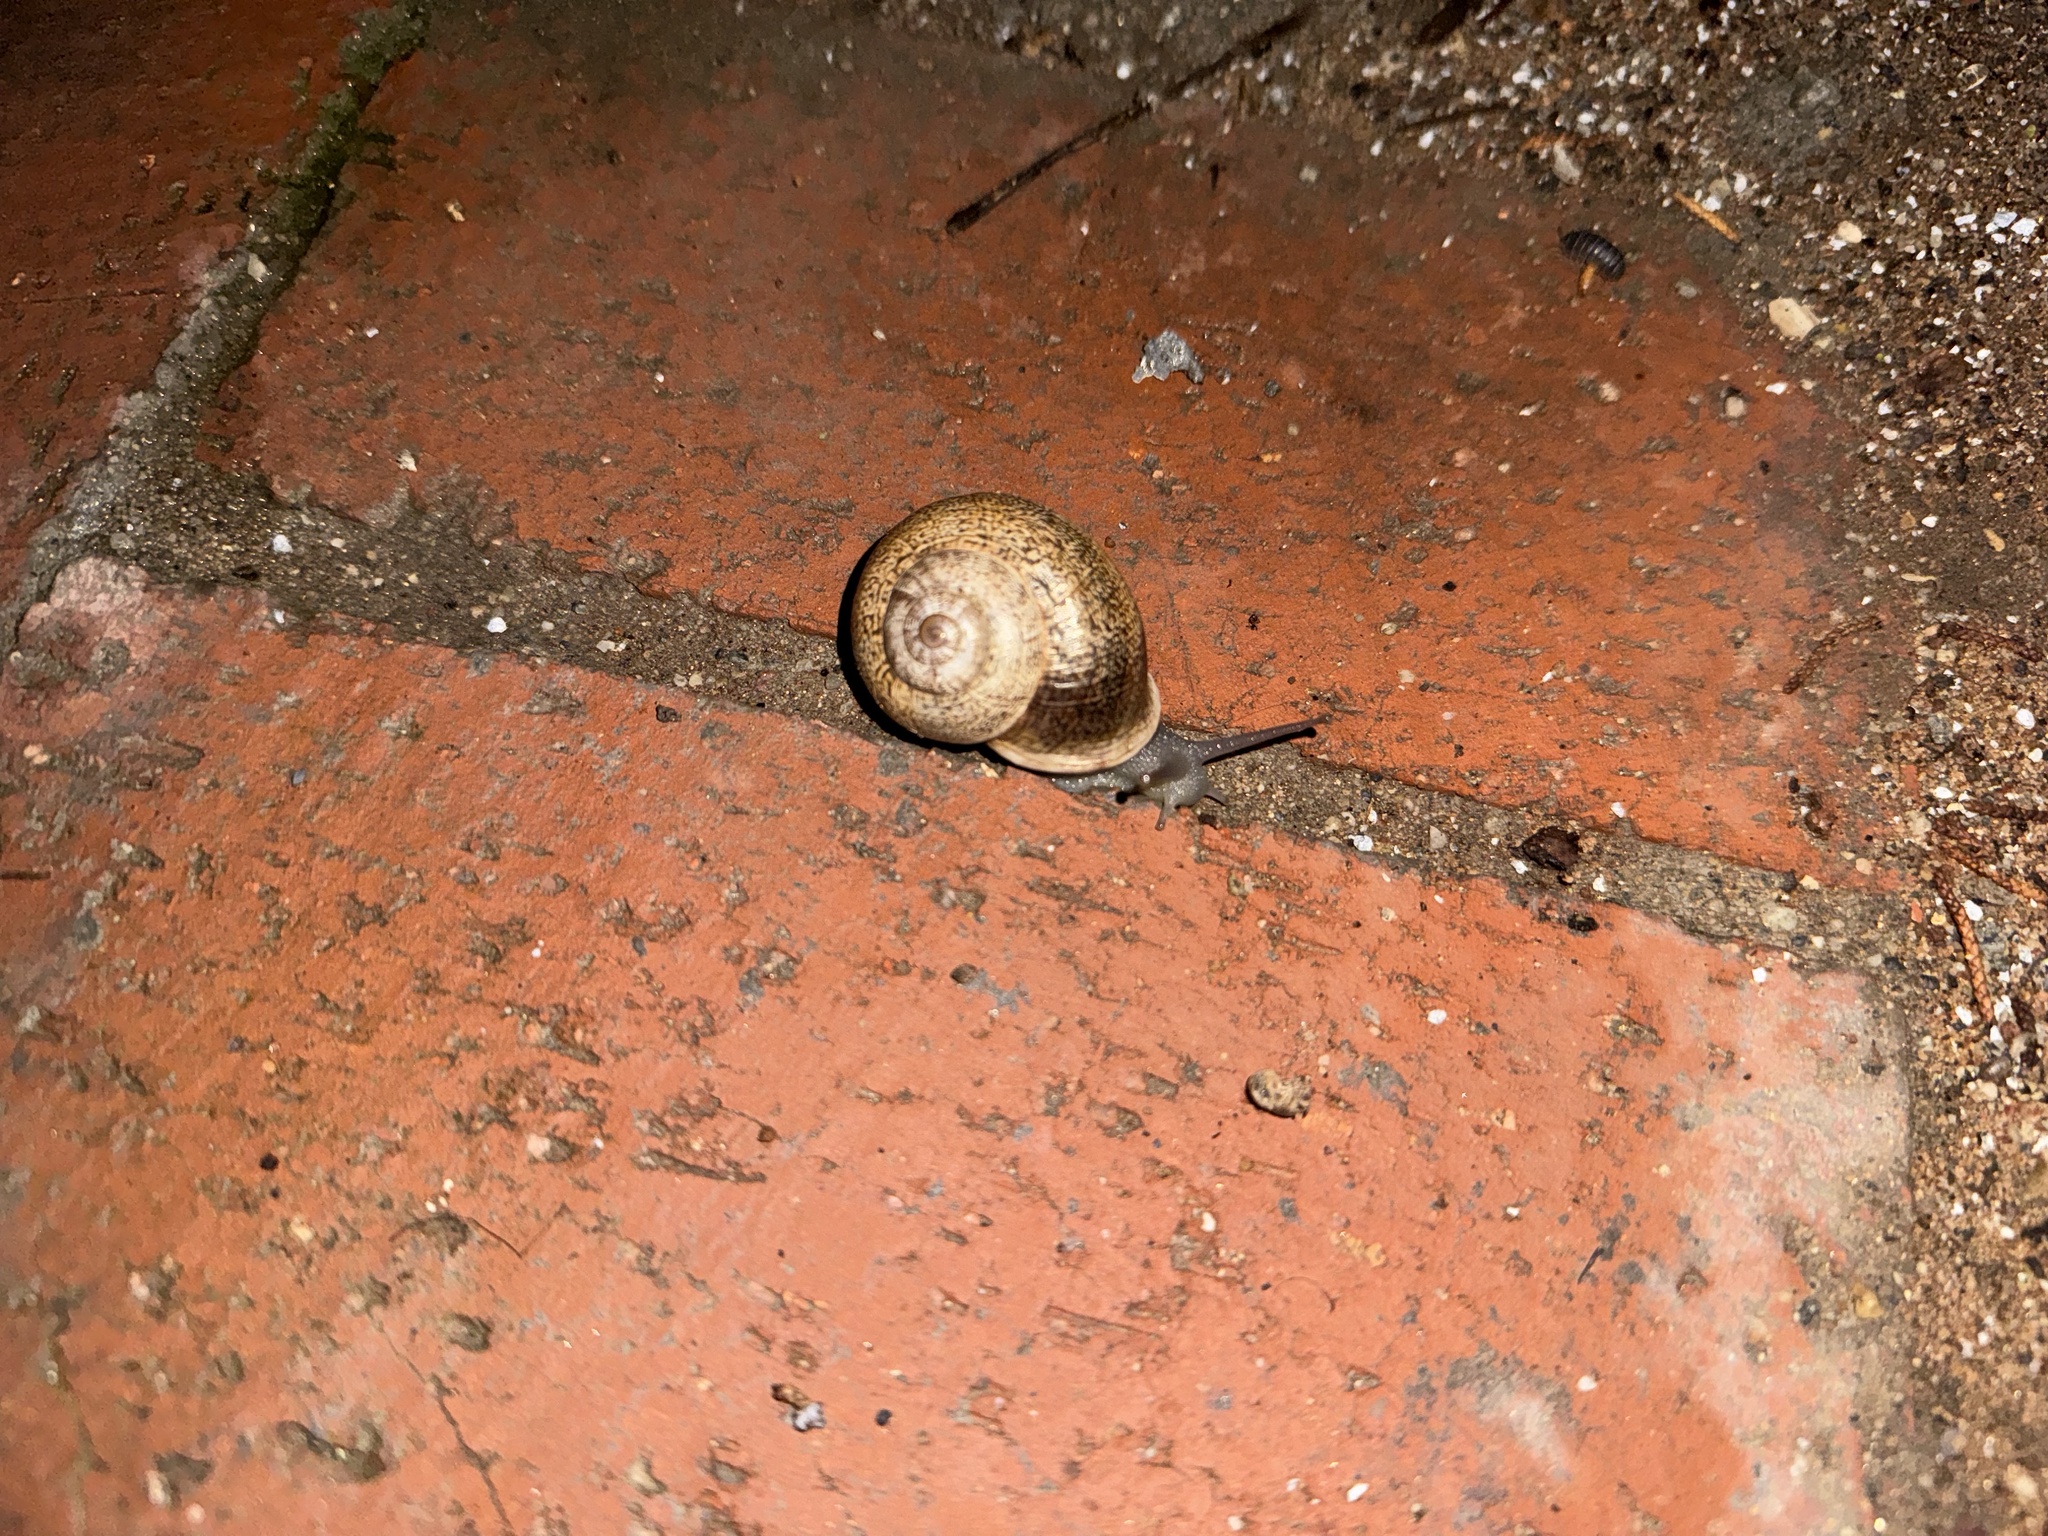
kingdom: Animalia
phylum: Mollusca
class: Gastropoda
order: Stylommatophora
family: Helicidae
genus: Otala
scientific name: Otala lactea
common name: Milk snail
